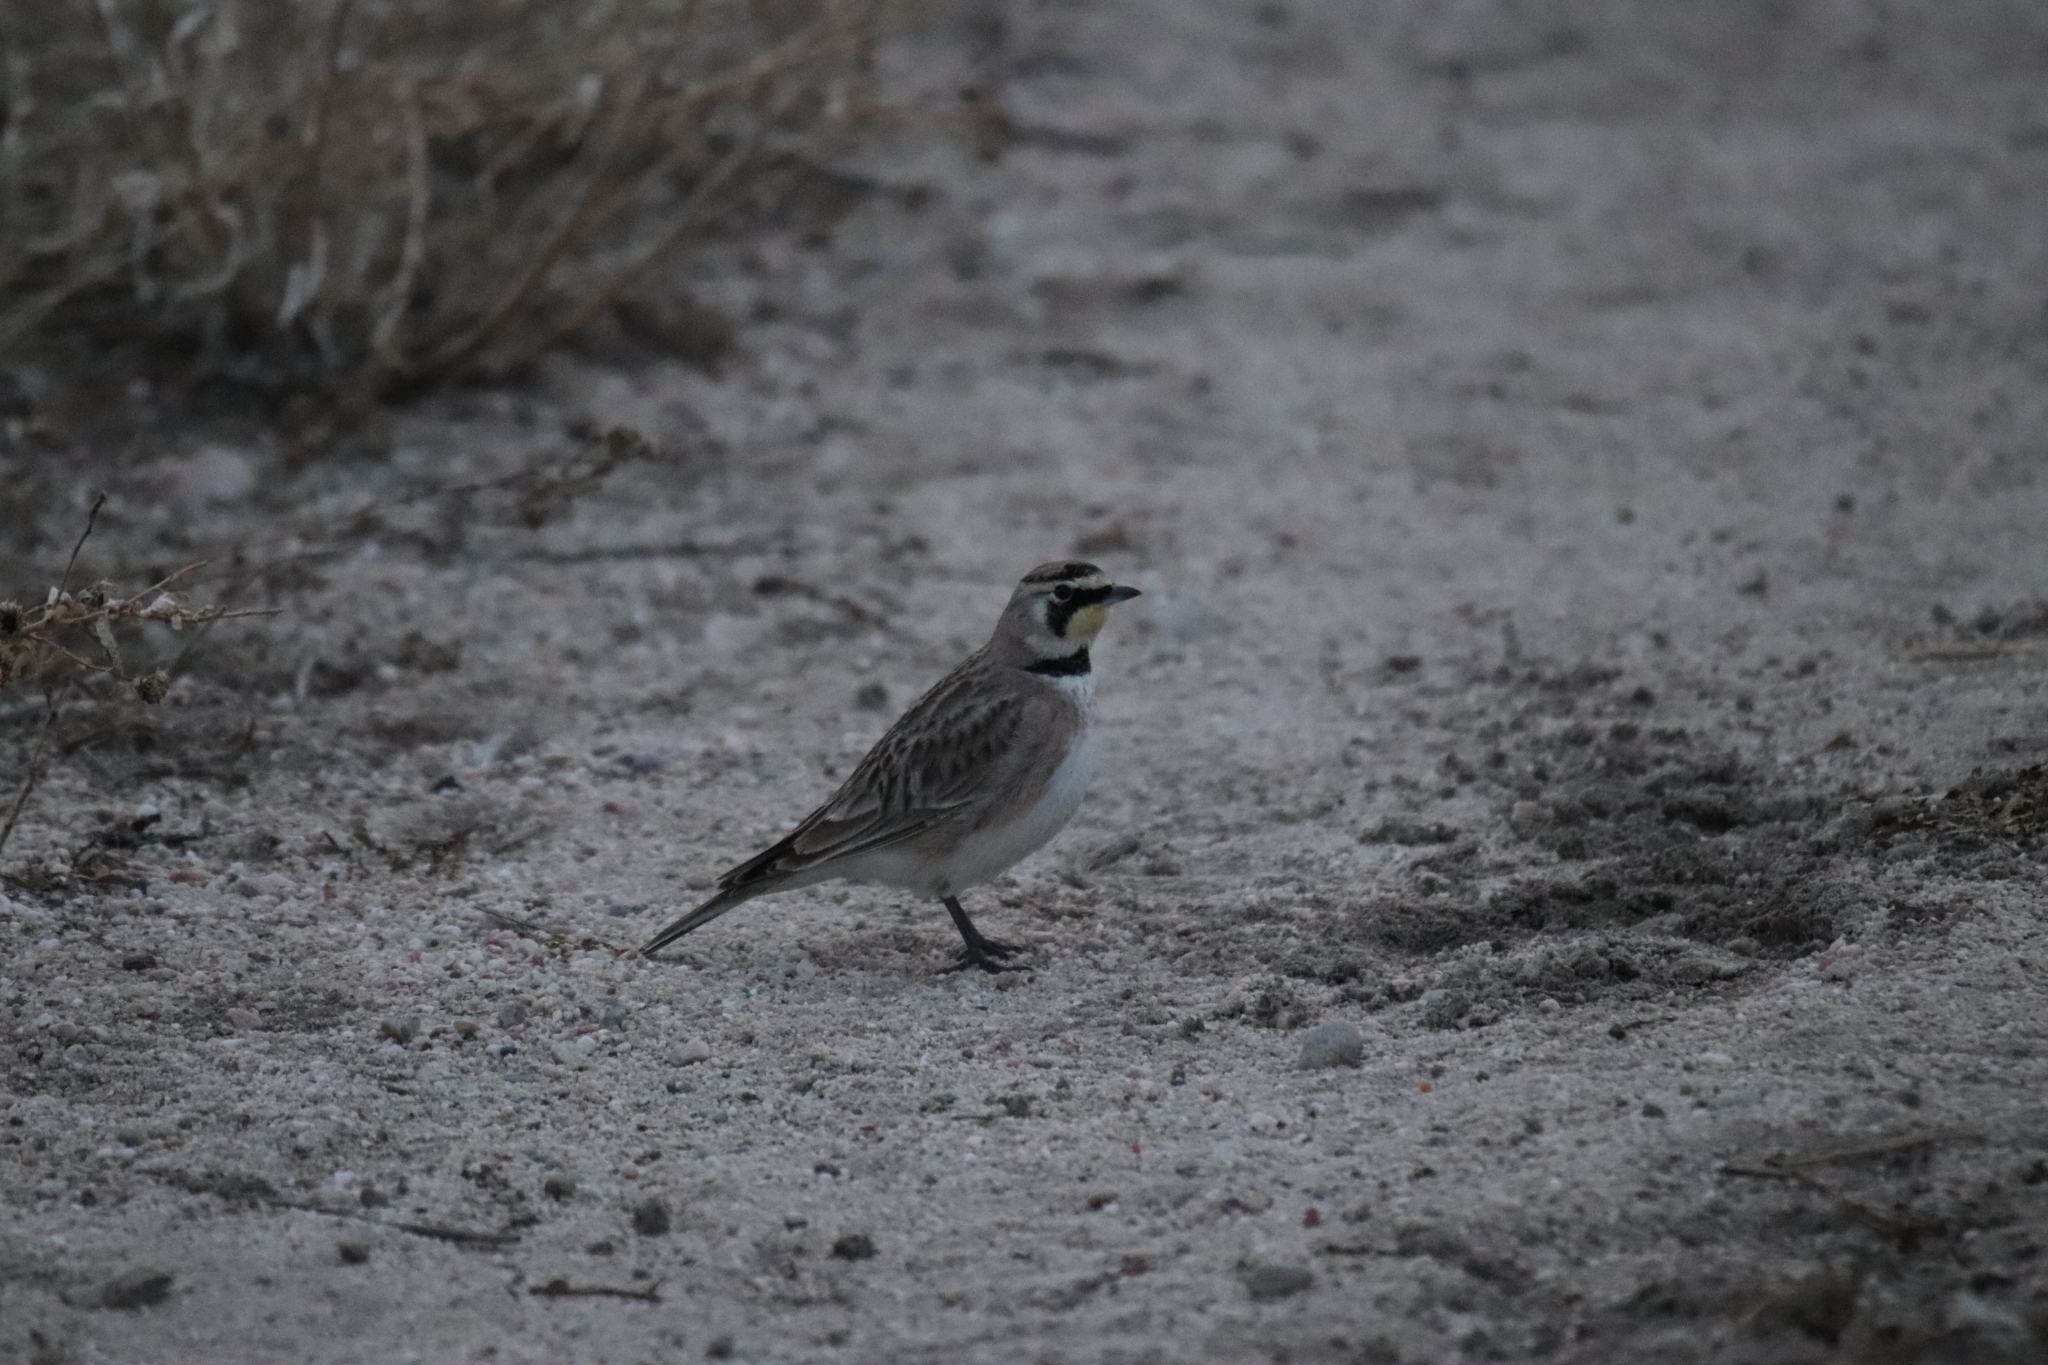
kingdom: Animalia
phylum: Chordata
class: Aves
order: Passeriformes
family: Alaudidae
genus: Eremophila
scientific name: Eremophila alpestris
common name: Horned lark
